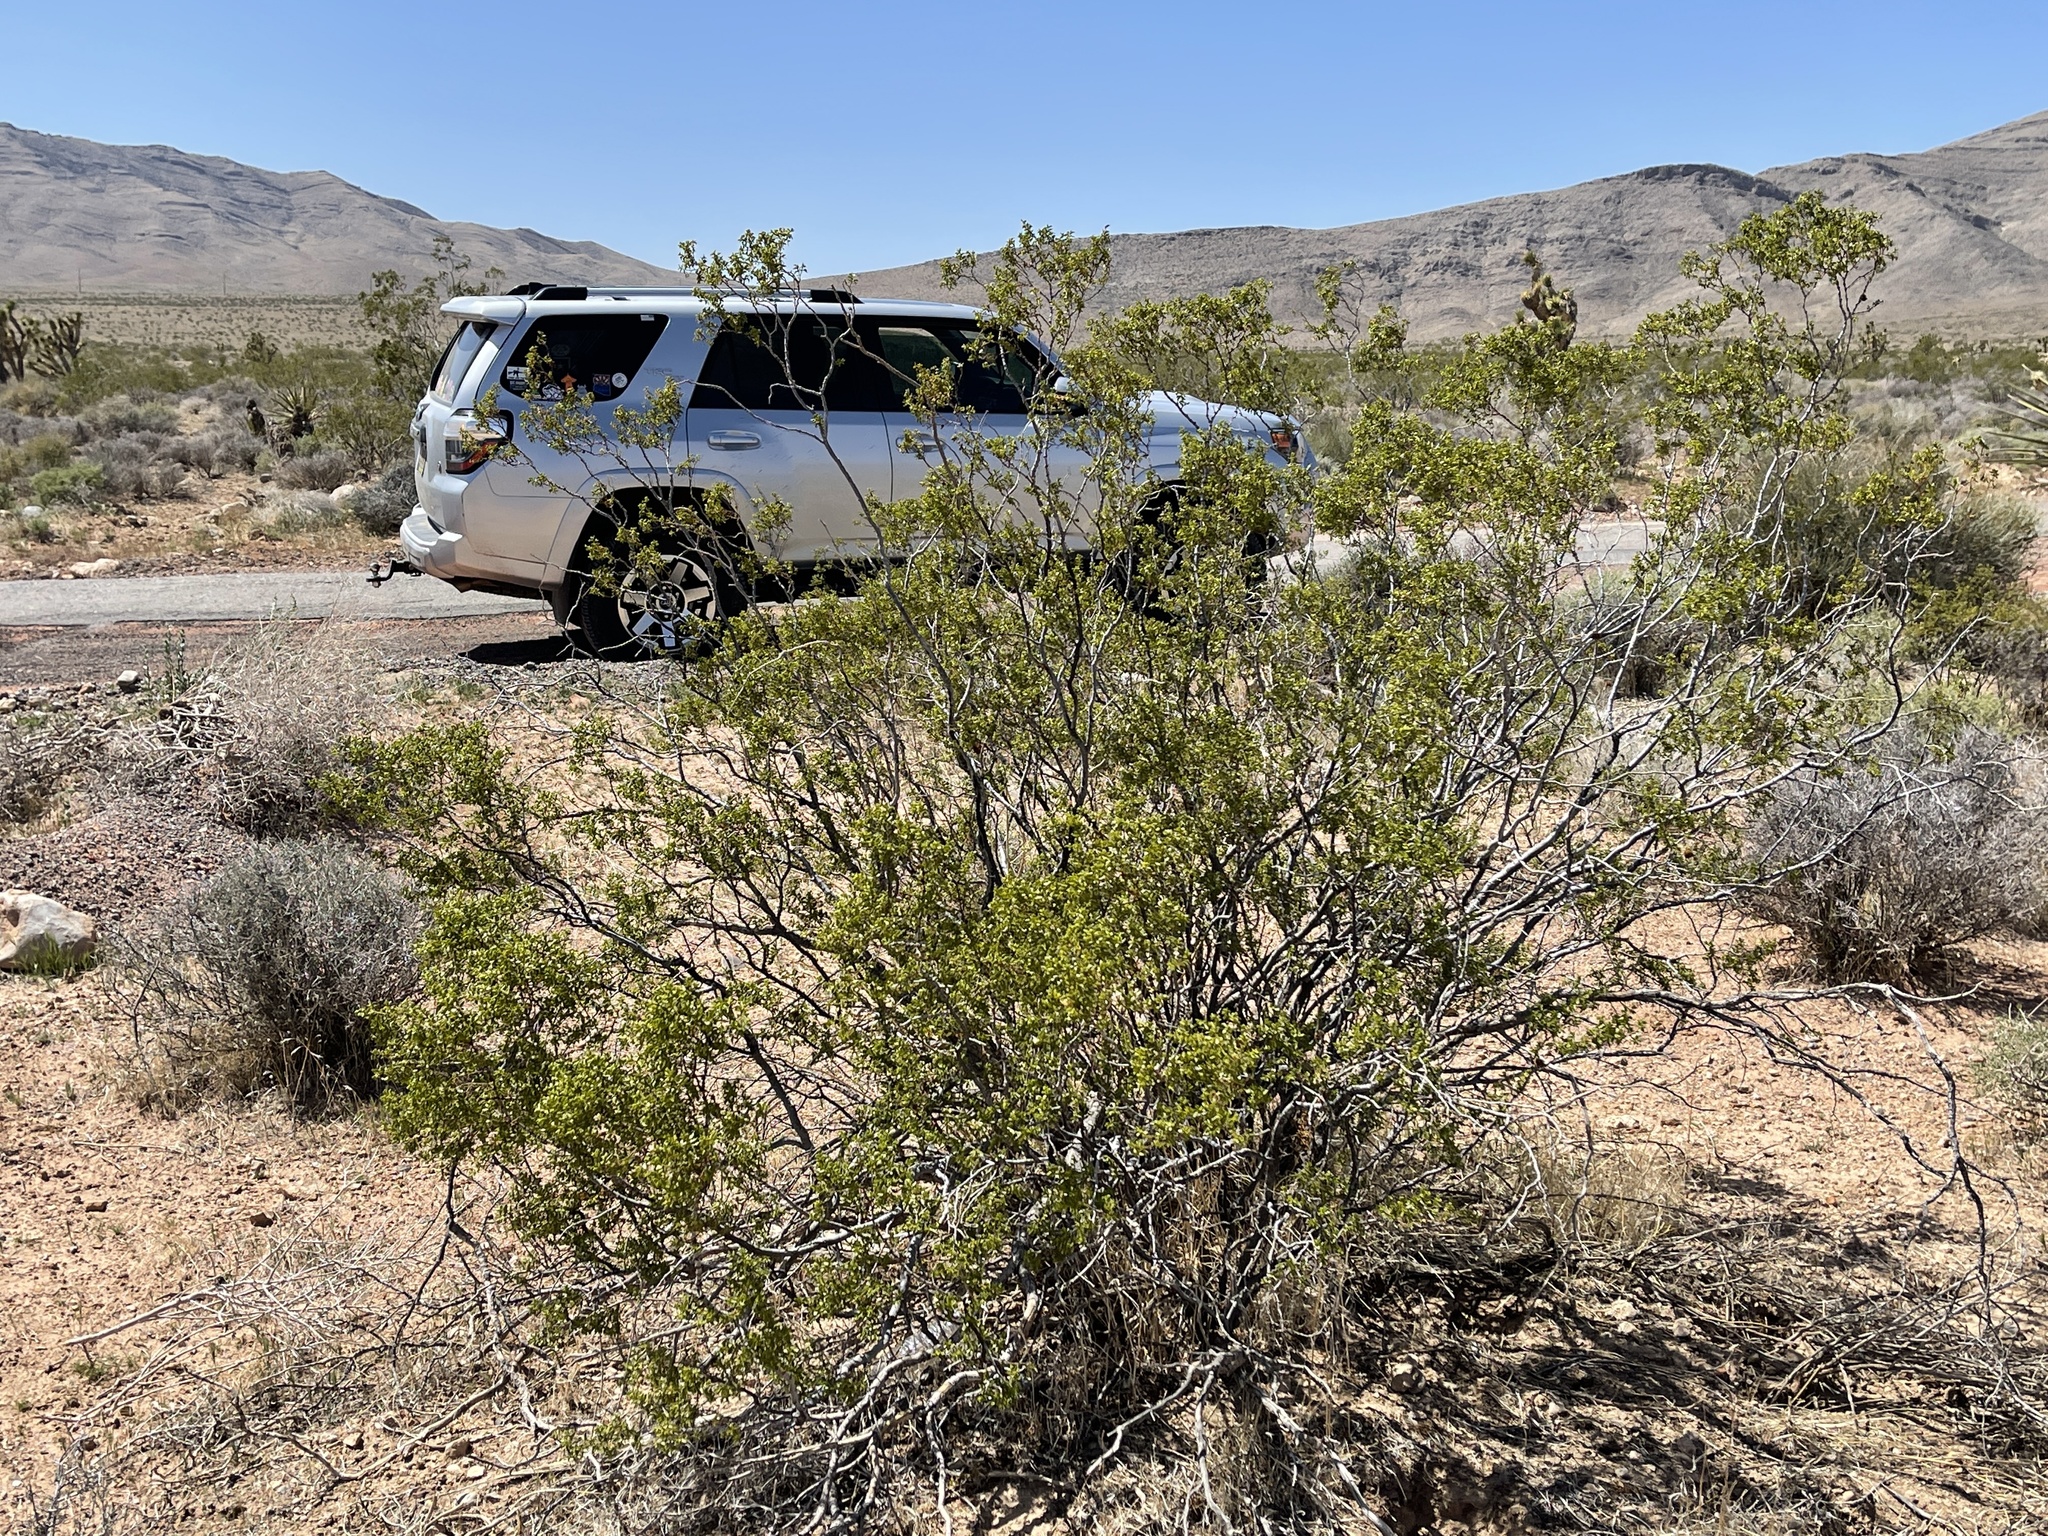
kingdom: Plantae
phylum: Tracheophyta
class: Magnoliopsida
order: Zygophyllales
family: Zygophyllaceae
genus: Larrea
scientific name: Larrea tridentata
